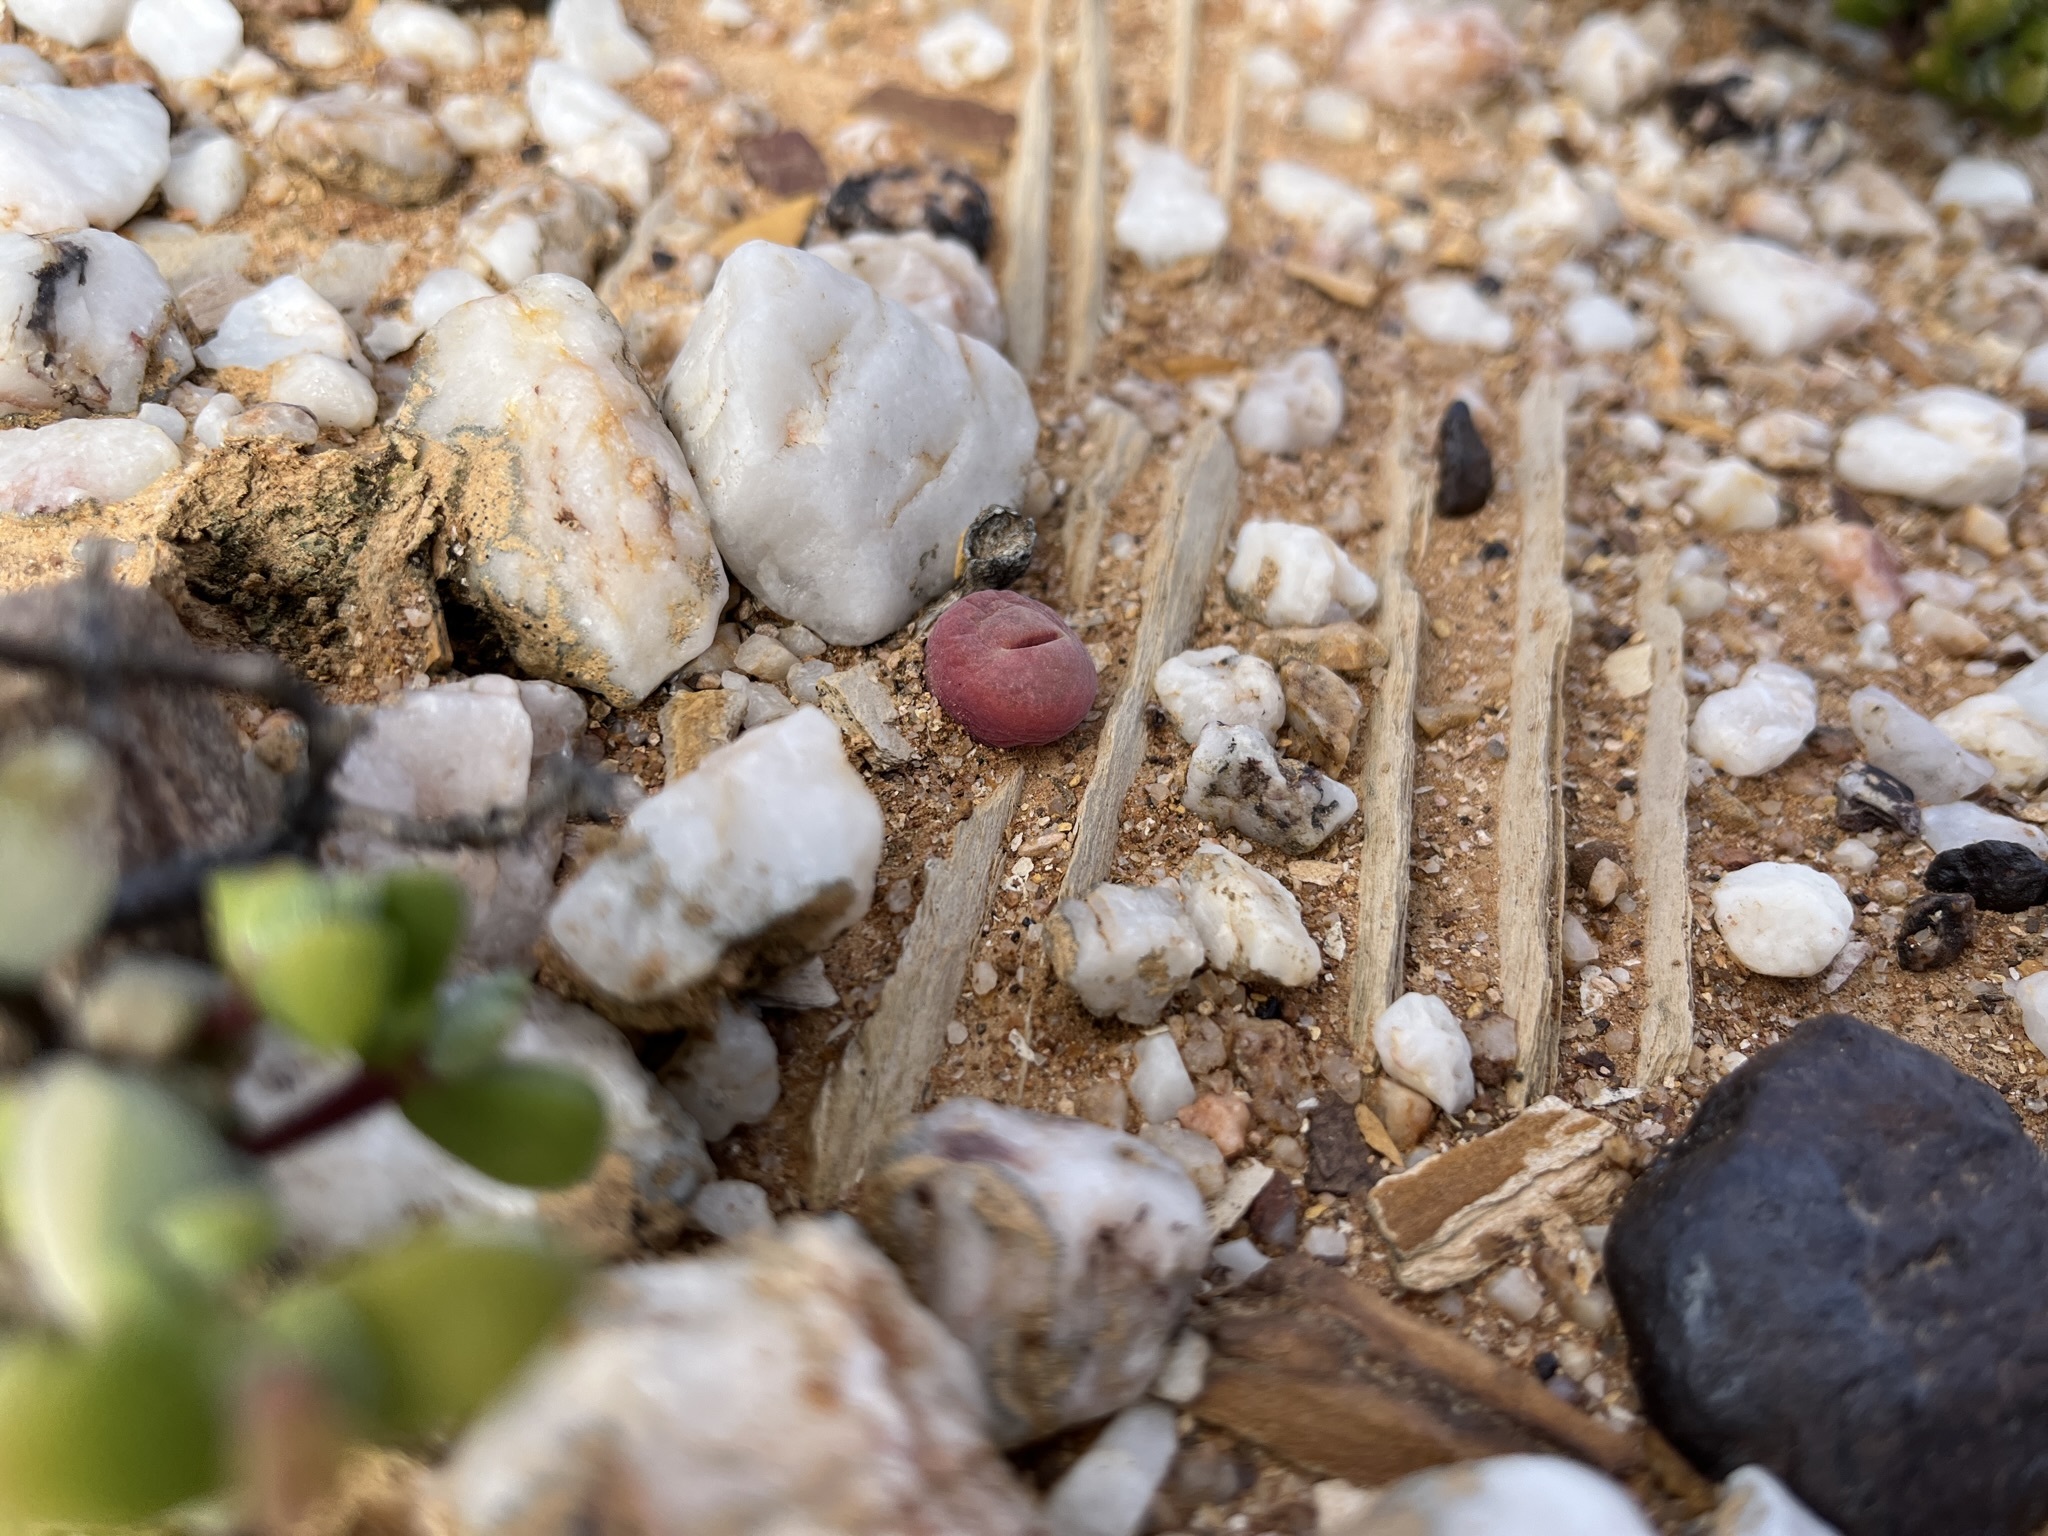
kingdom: Plantae
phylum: Tracheophyta
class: Magnoliopsida
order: Caryophyllales
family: Aizoaceae
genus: Conophytum
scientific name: Conophytum subfenestratum
